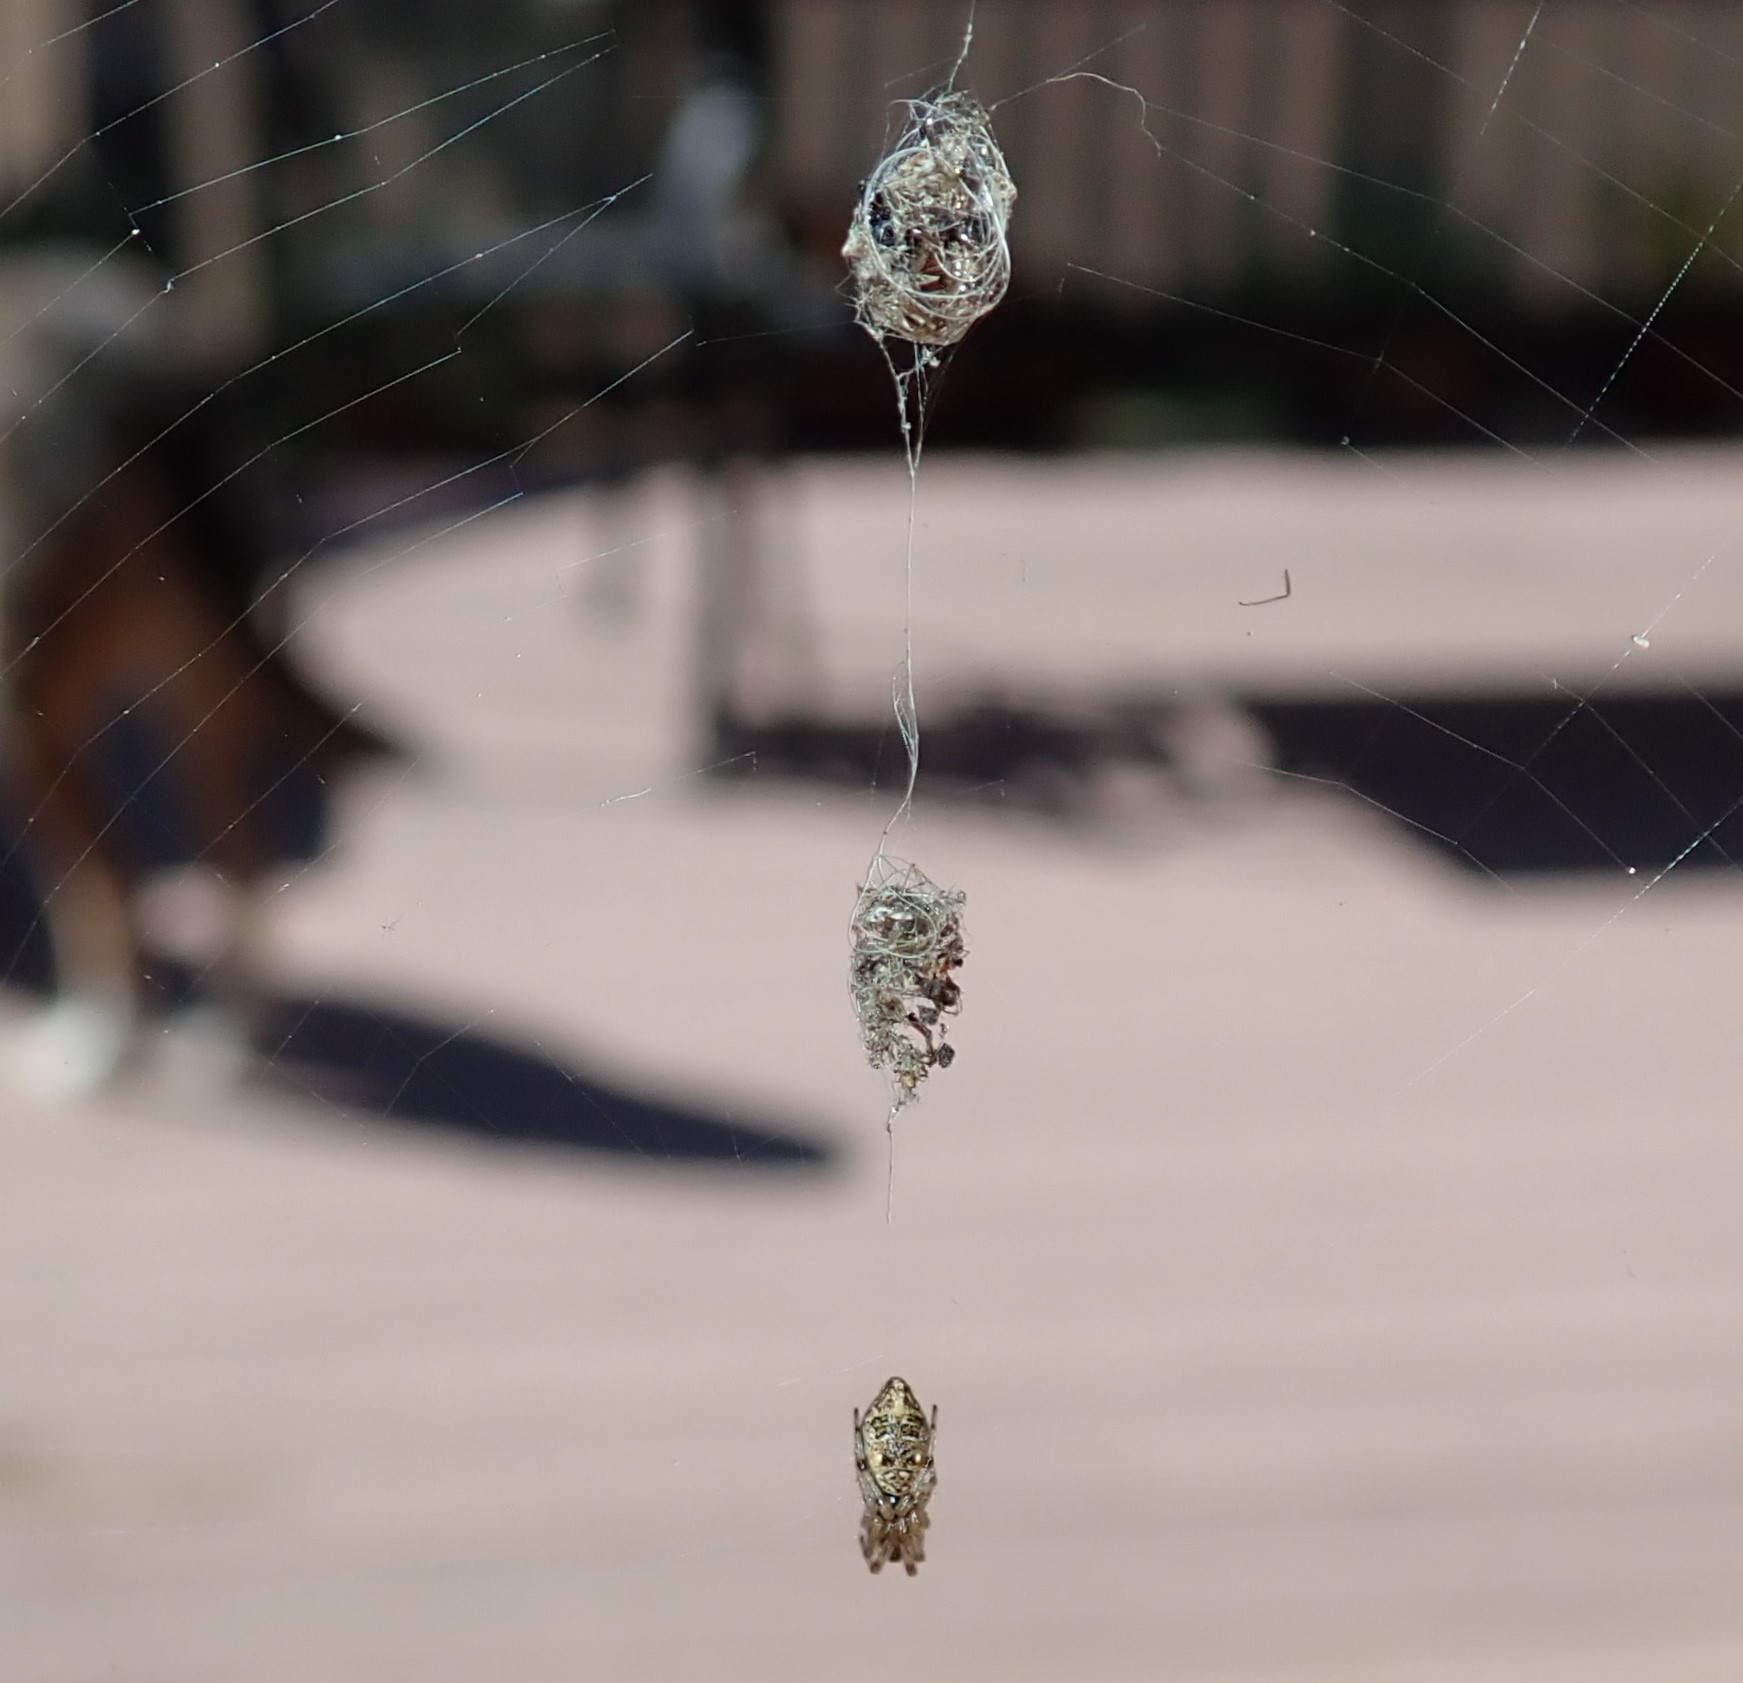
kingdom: Animalia
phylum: Arthropoda
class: Arachnida
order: Araneae
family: Araneidae
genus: Cyclosa
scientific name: Cyclosa turbinata
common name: Orb weavers
